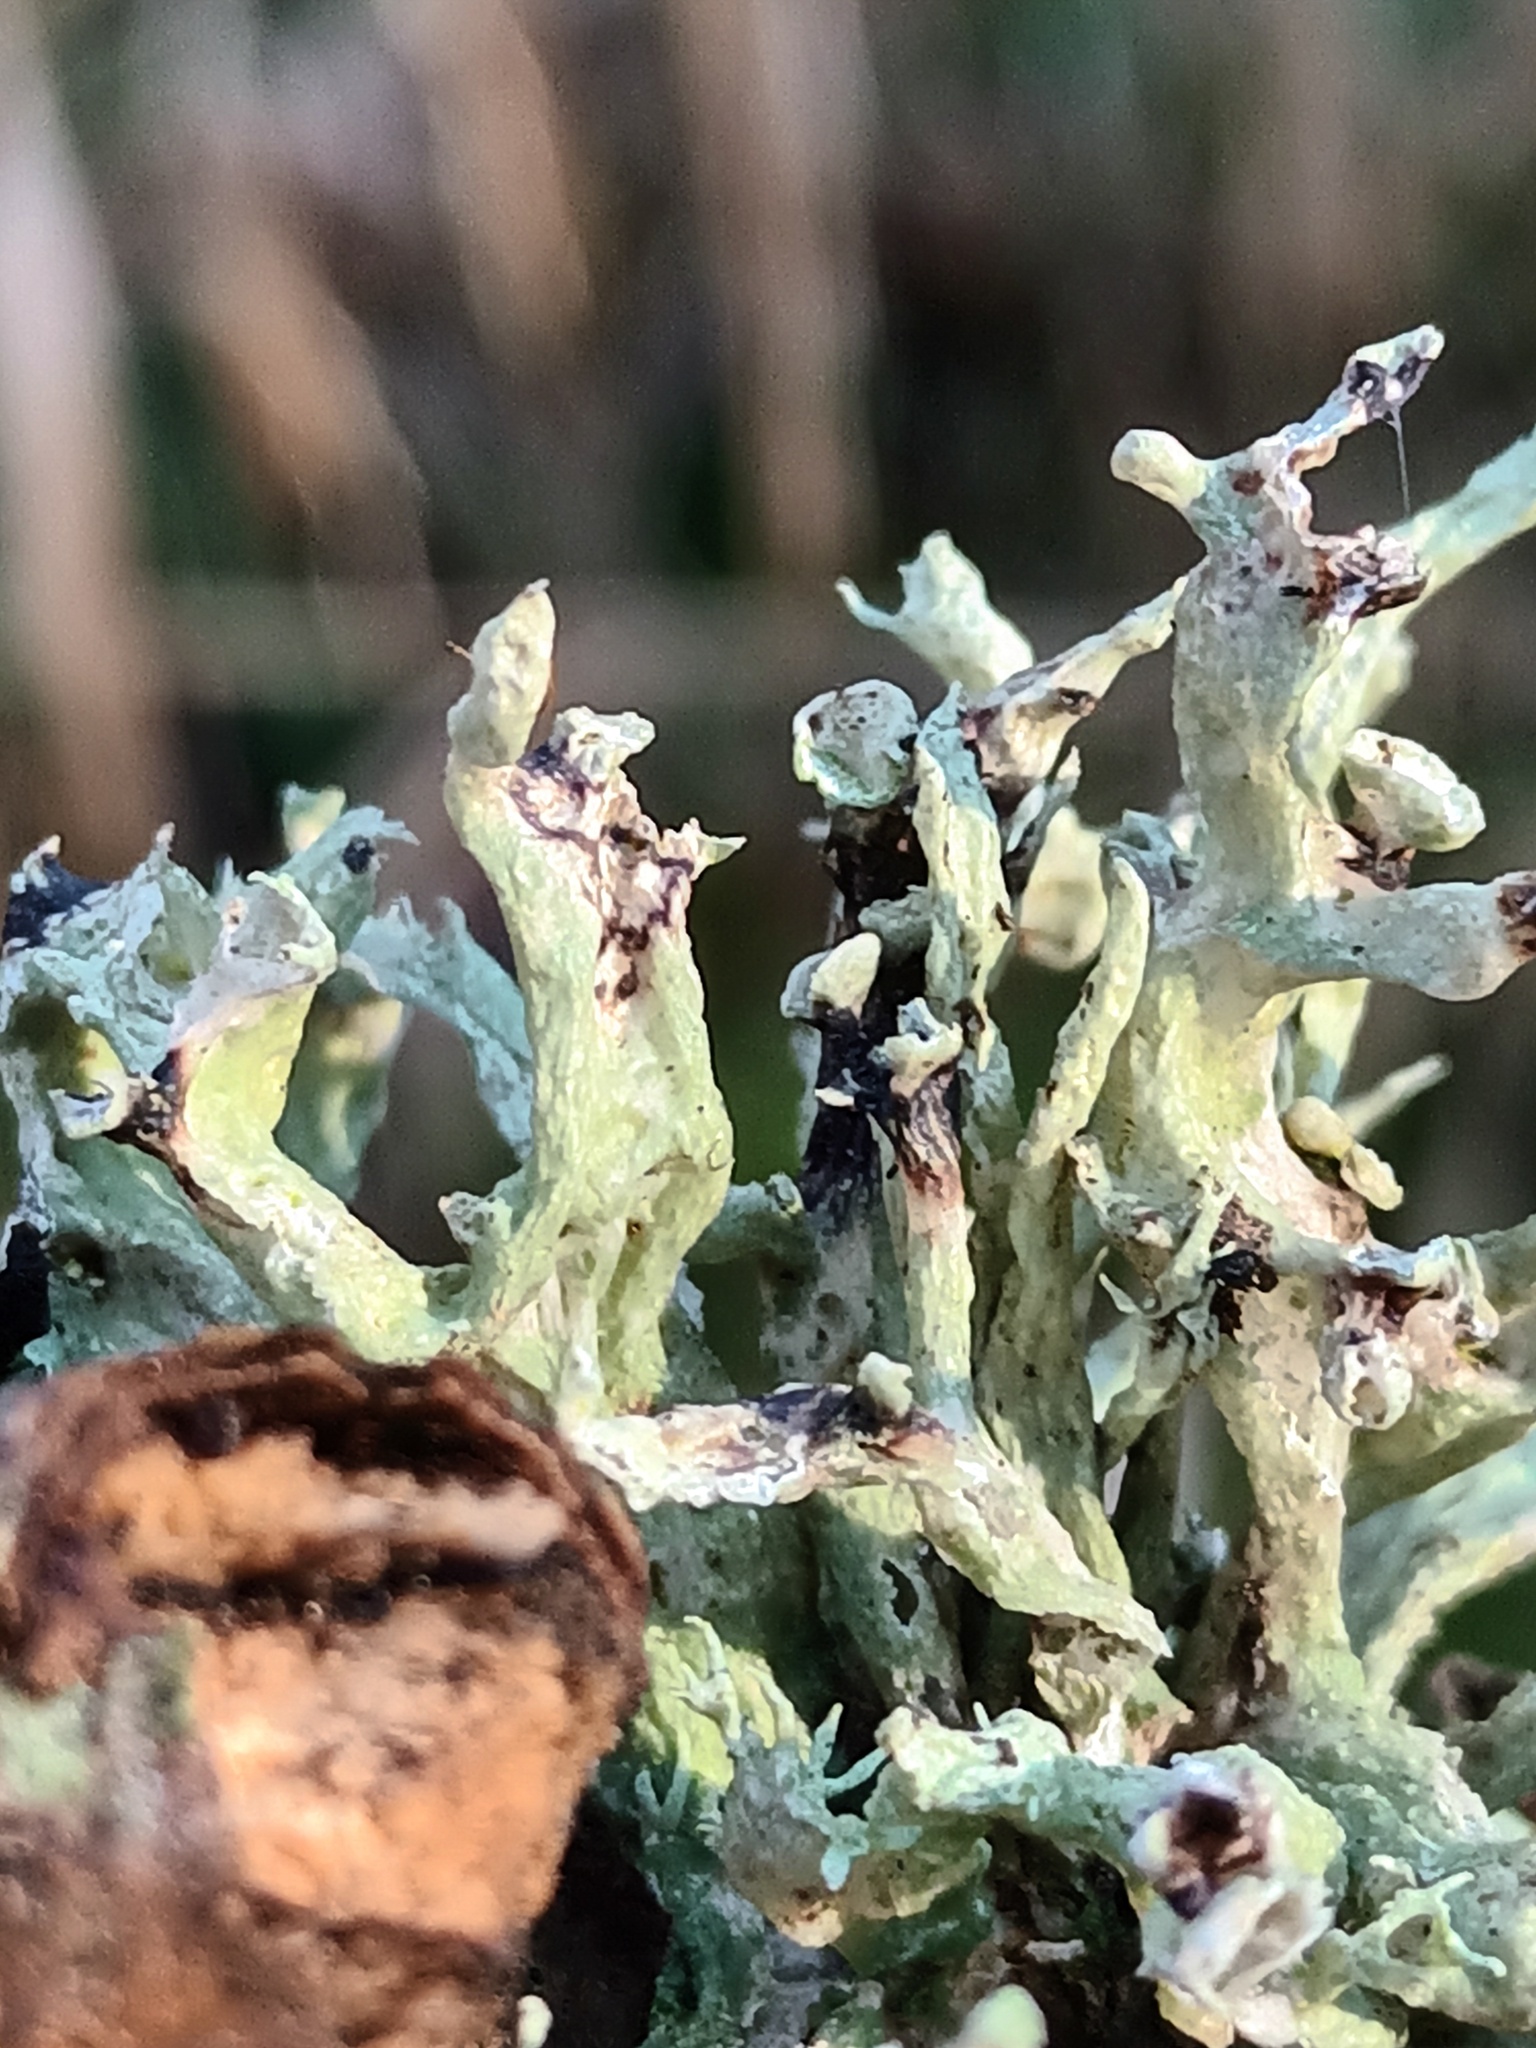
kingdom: Fungi
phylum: Ascomycota
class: Lecanoromycetes
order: Lecanorales
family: Ramalinaceae
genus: Ramalina
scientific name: Ramalina fastigiata
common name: Dotted ribbon lichen
